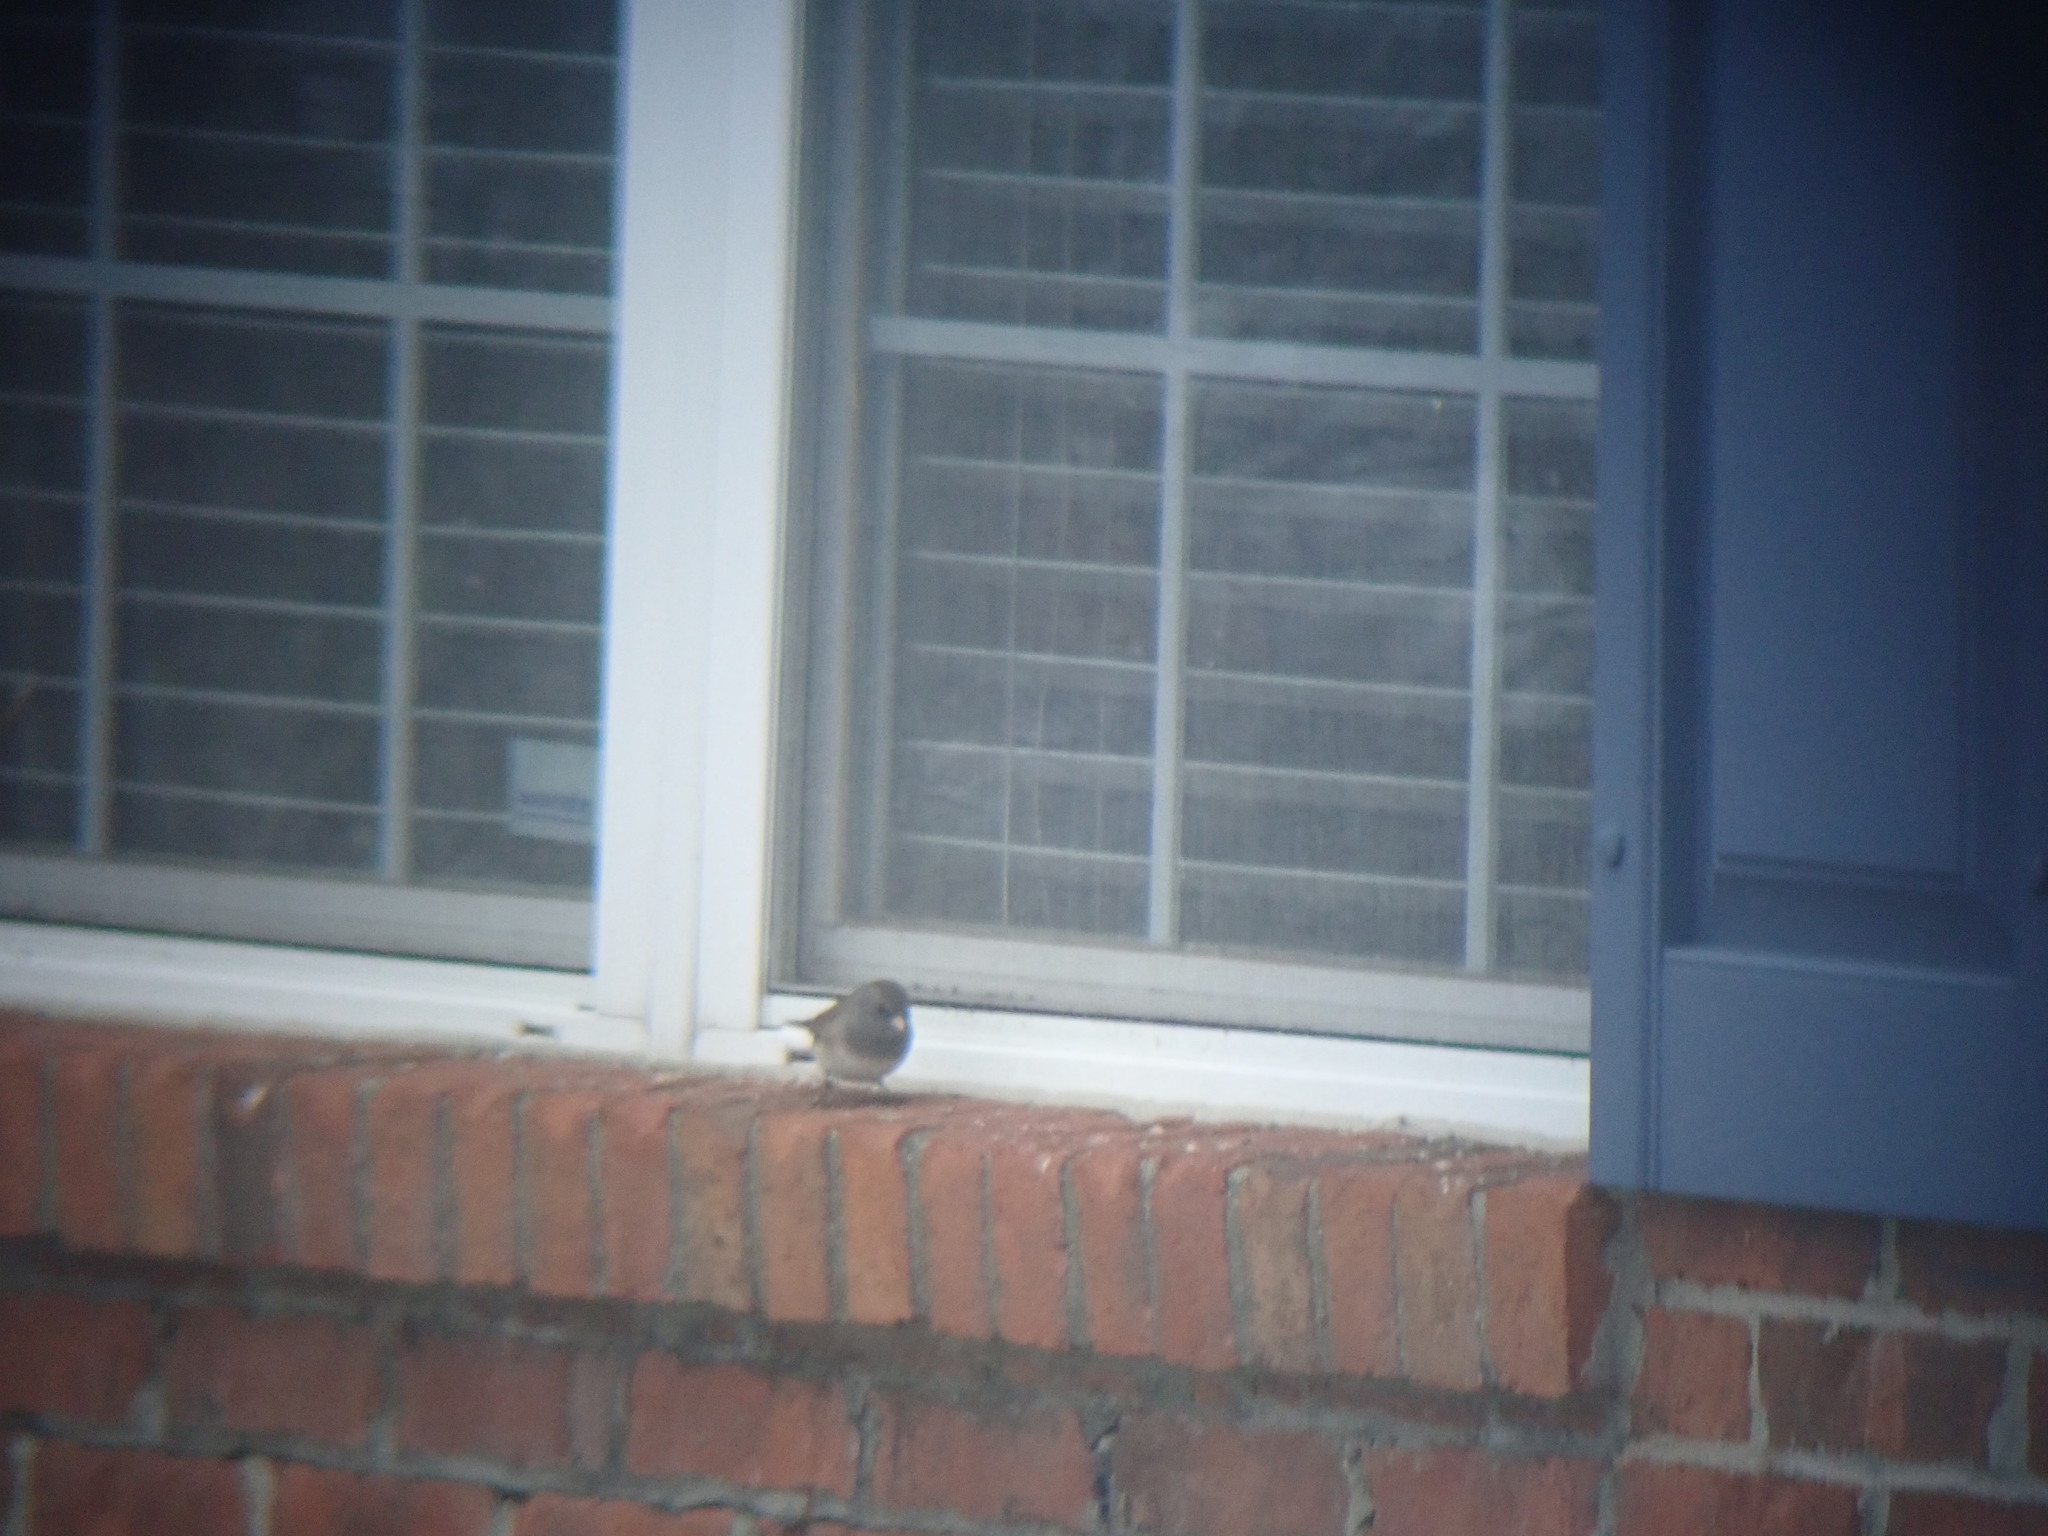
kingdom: Animalia
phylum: Chordata
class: Aves
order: Passeriformes
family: Passerellidae
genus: Junco
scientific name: Junco hyemalis
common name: Dark-eyed junco
